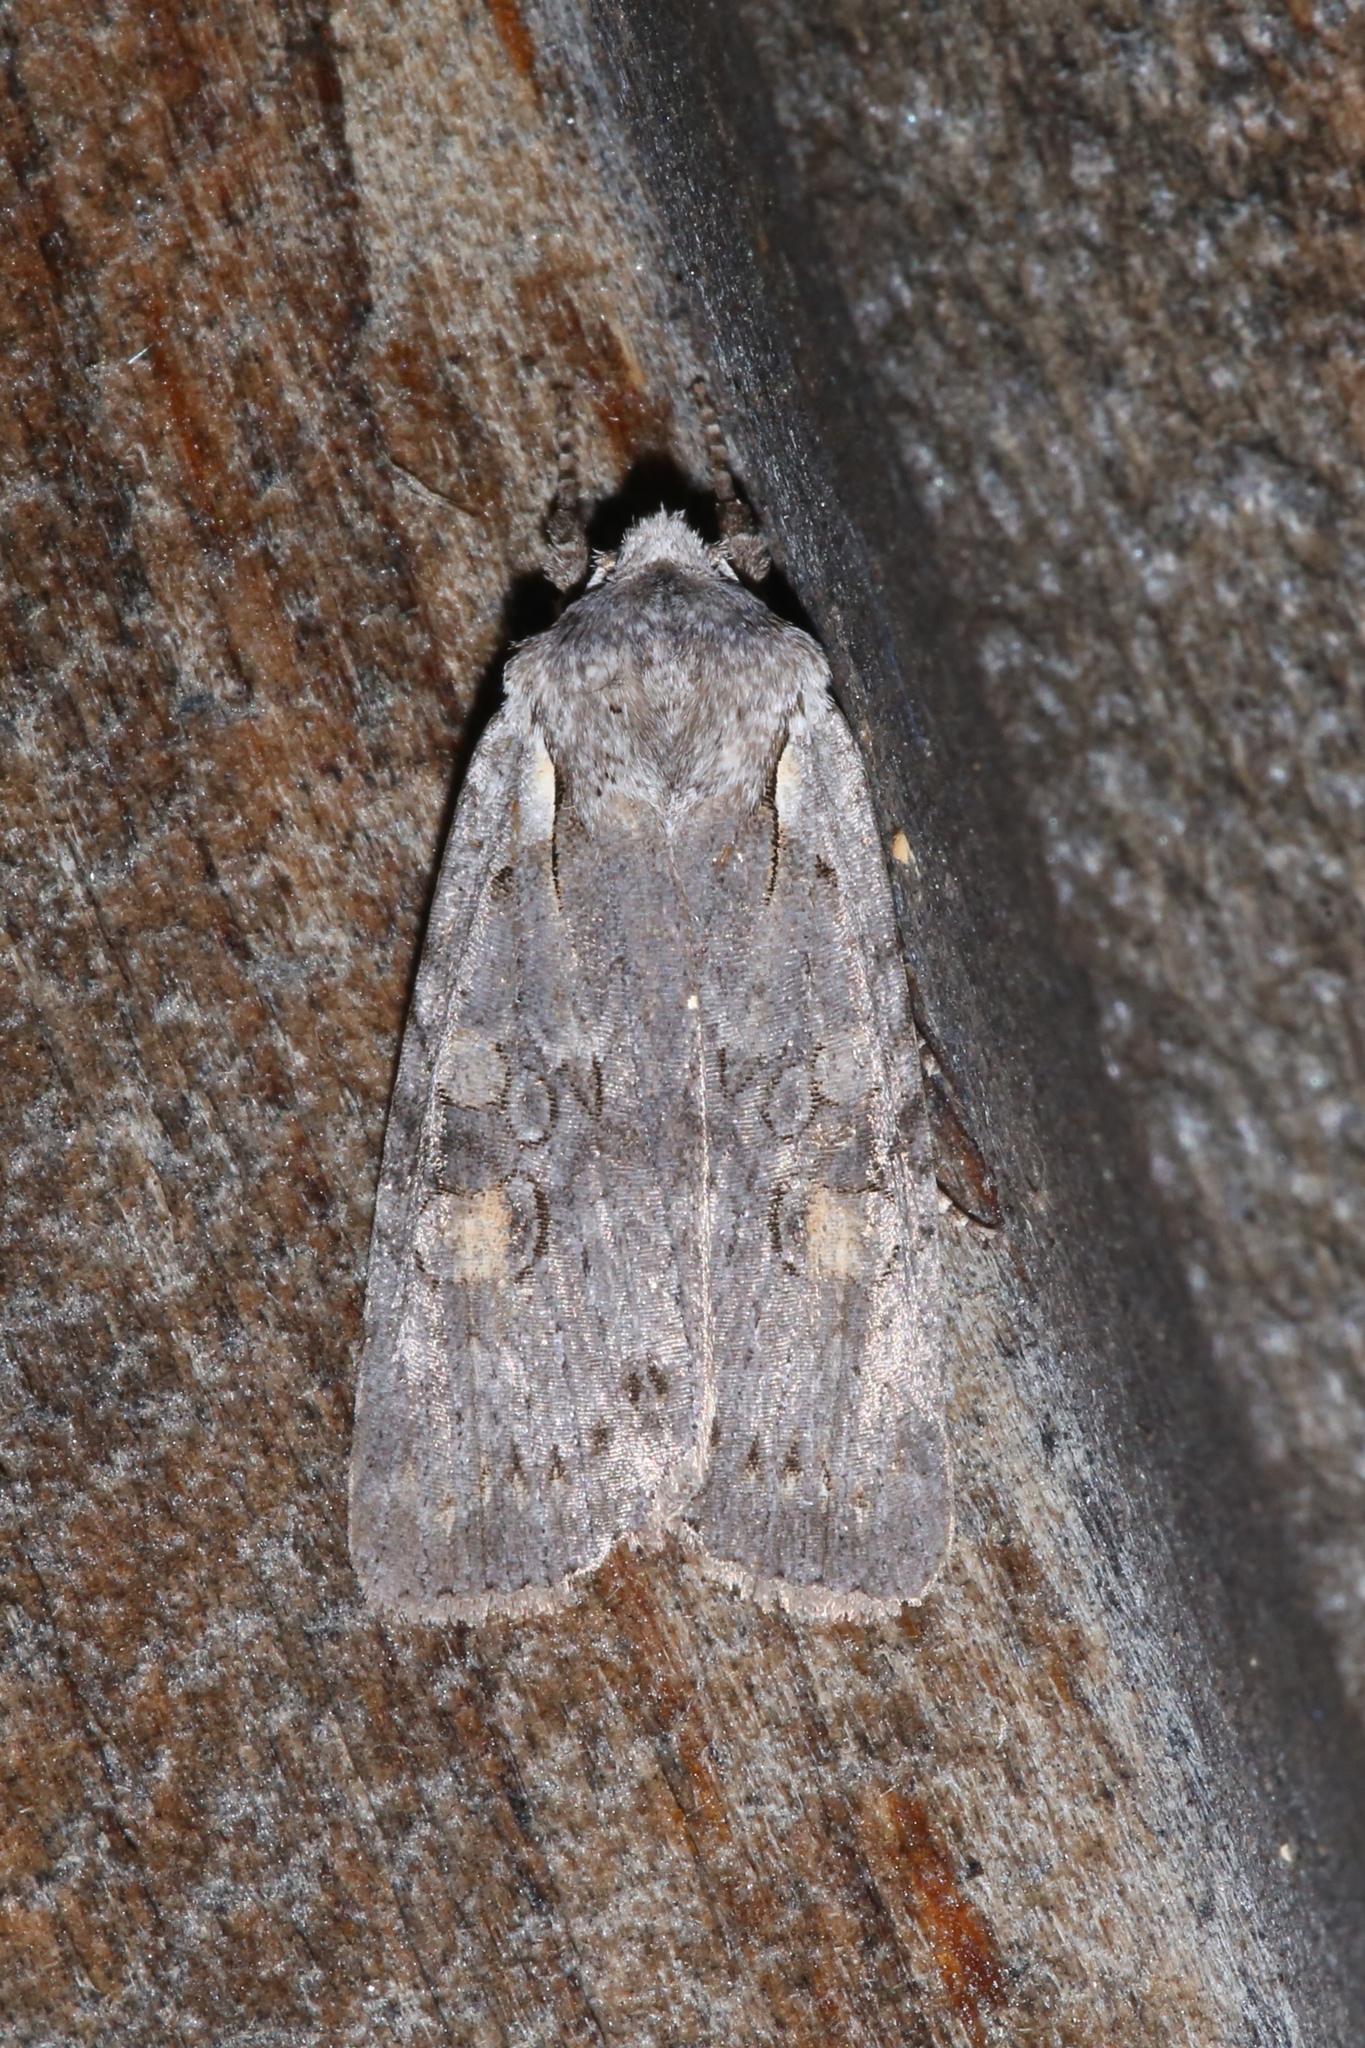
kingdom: Animalia
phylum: Arthropoda
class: Insecta
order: Lepidoptera
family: Noctuidae
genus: Lithophane
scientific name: Lithophane antennata
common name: Ashen pinion
